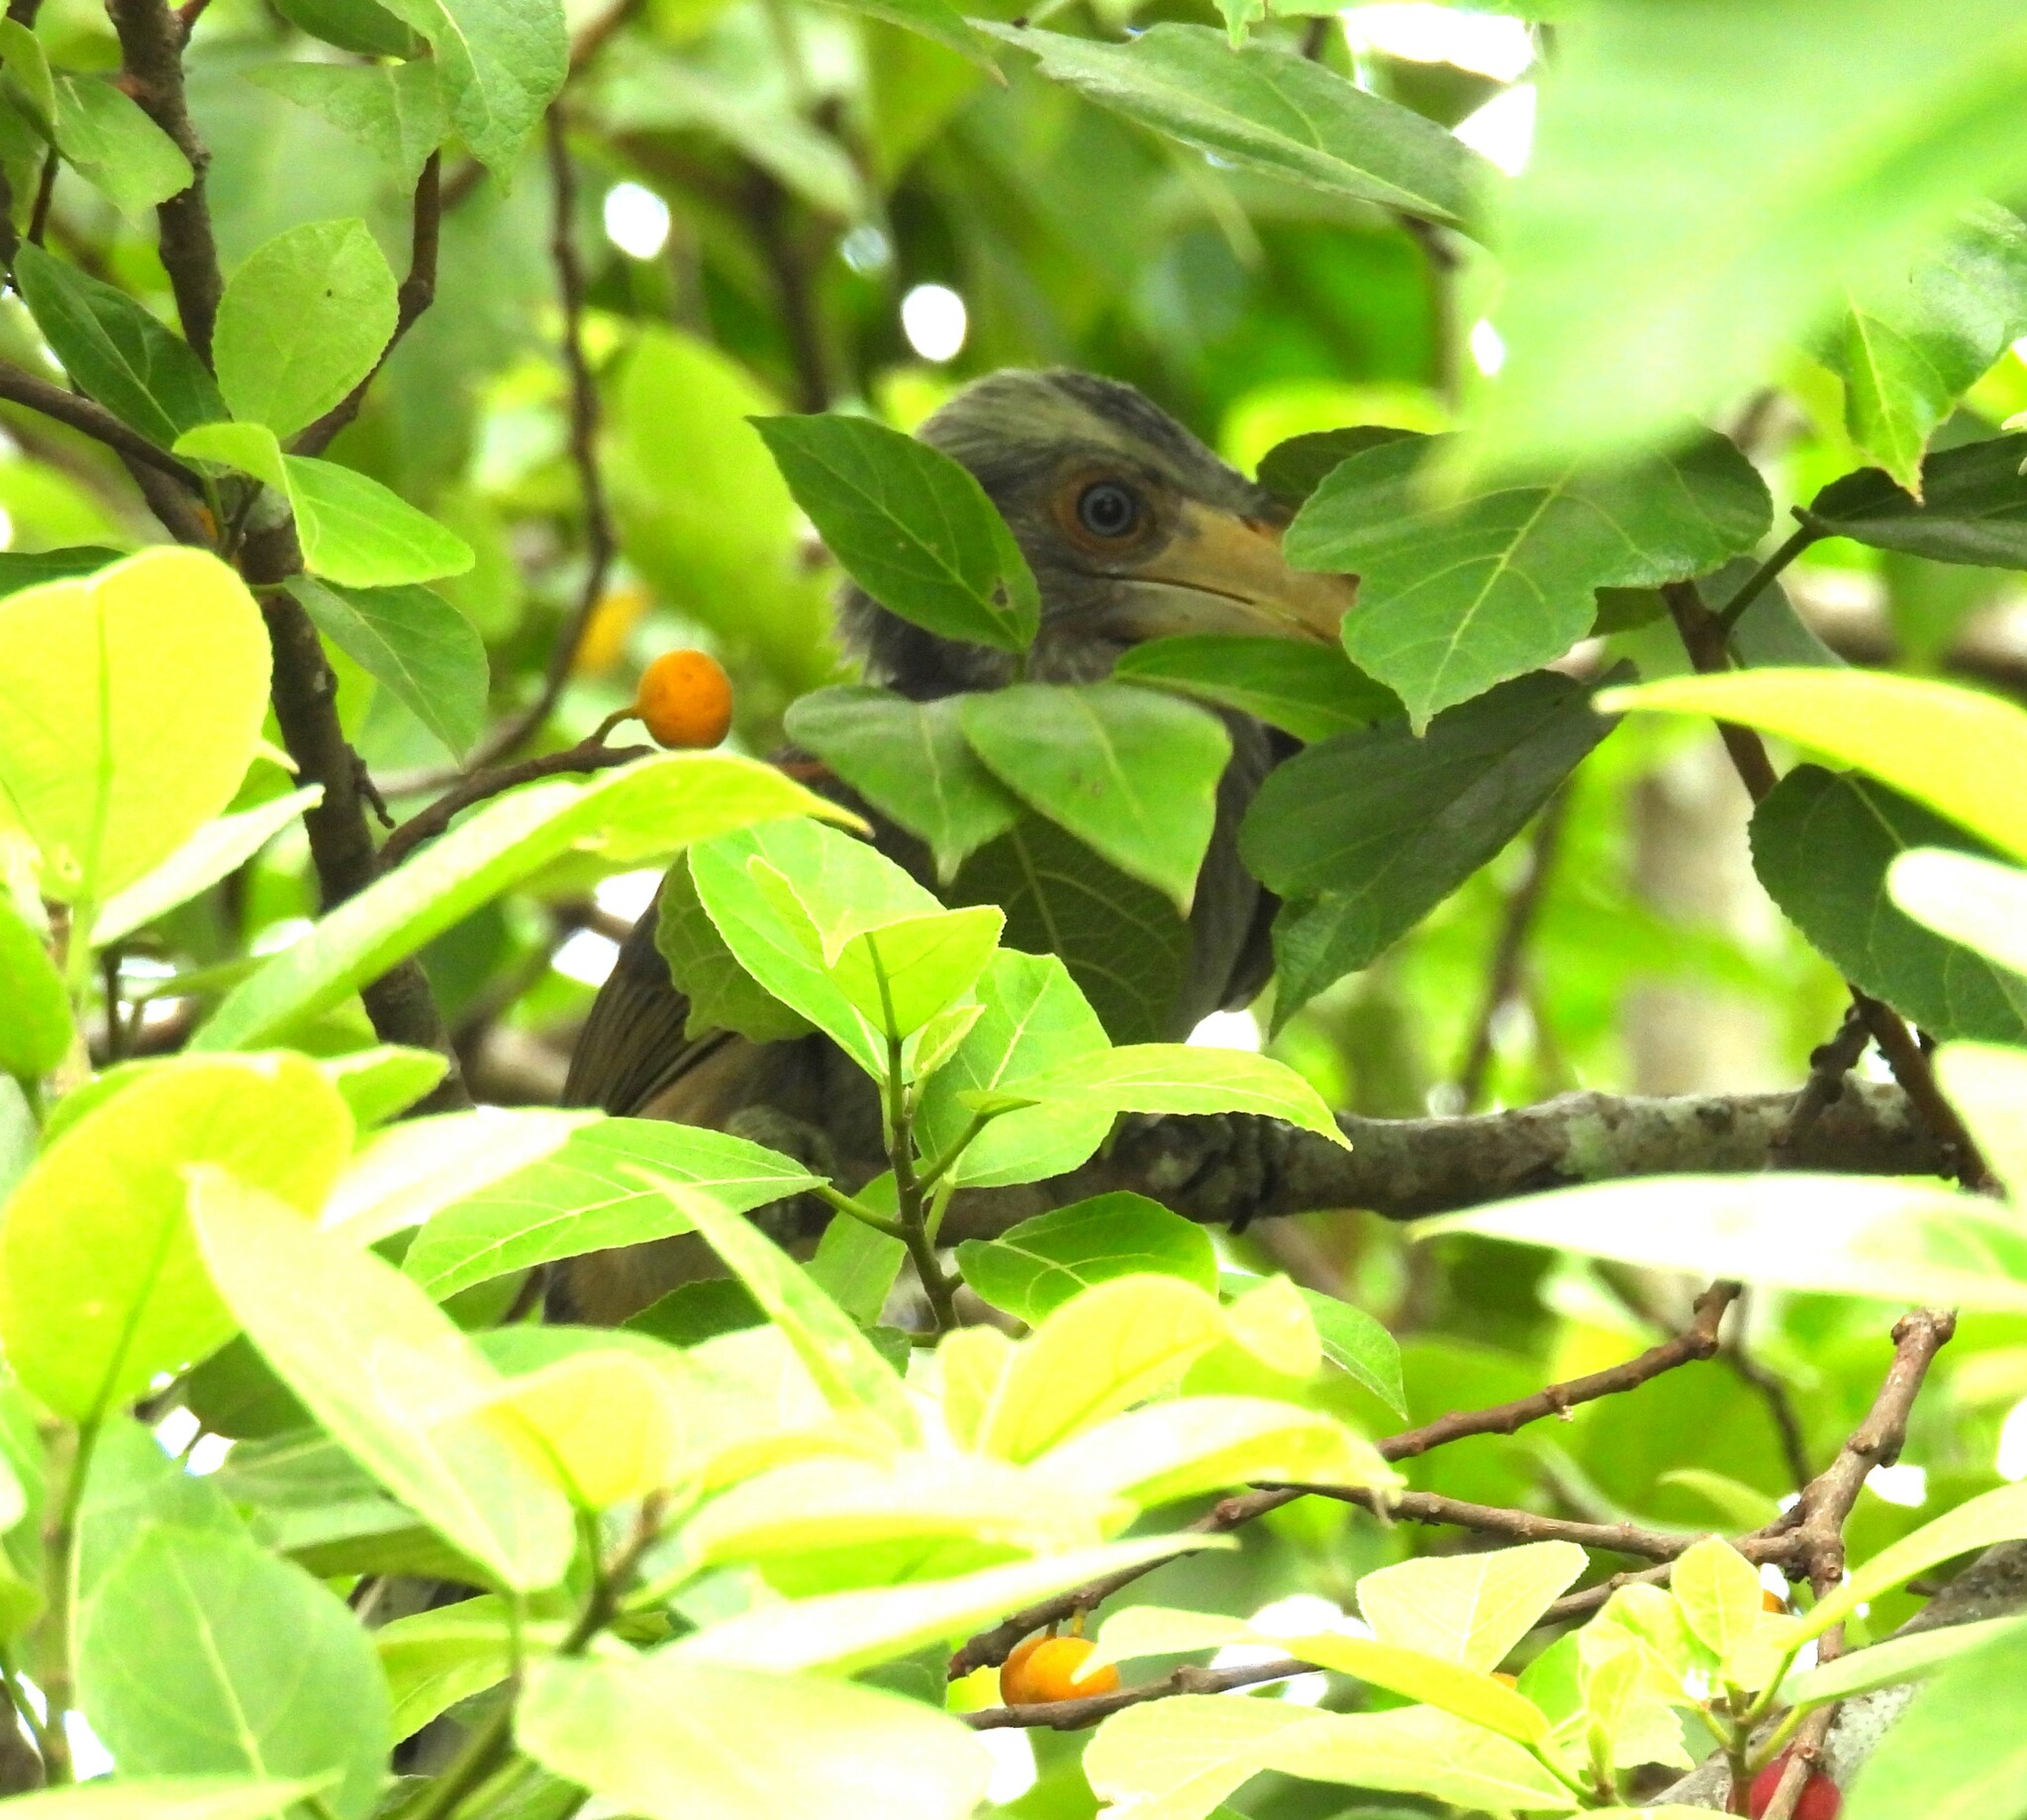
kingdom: Animalia
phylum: Chordata
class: Aves
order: Bucerotiformes
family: Bucerotidae
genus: Ocyceros
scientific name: Ocyceros griseus
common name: Malabar grey hornbill
